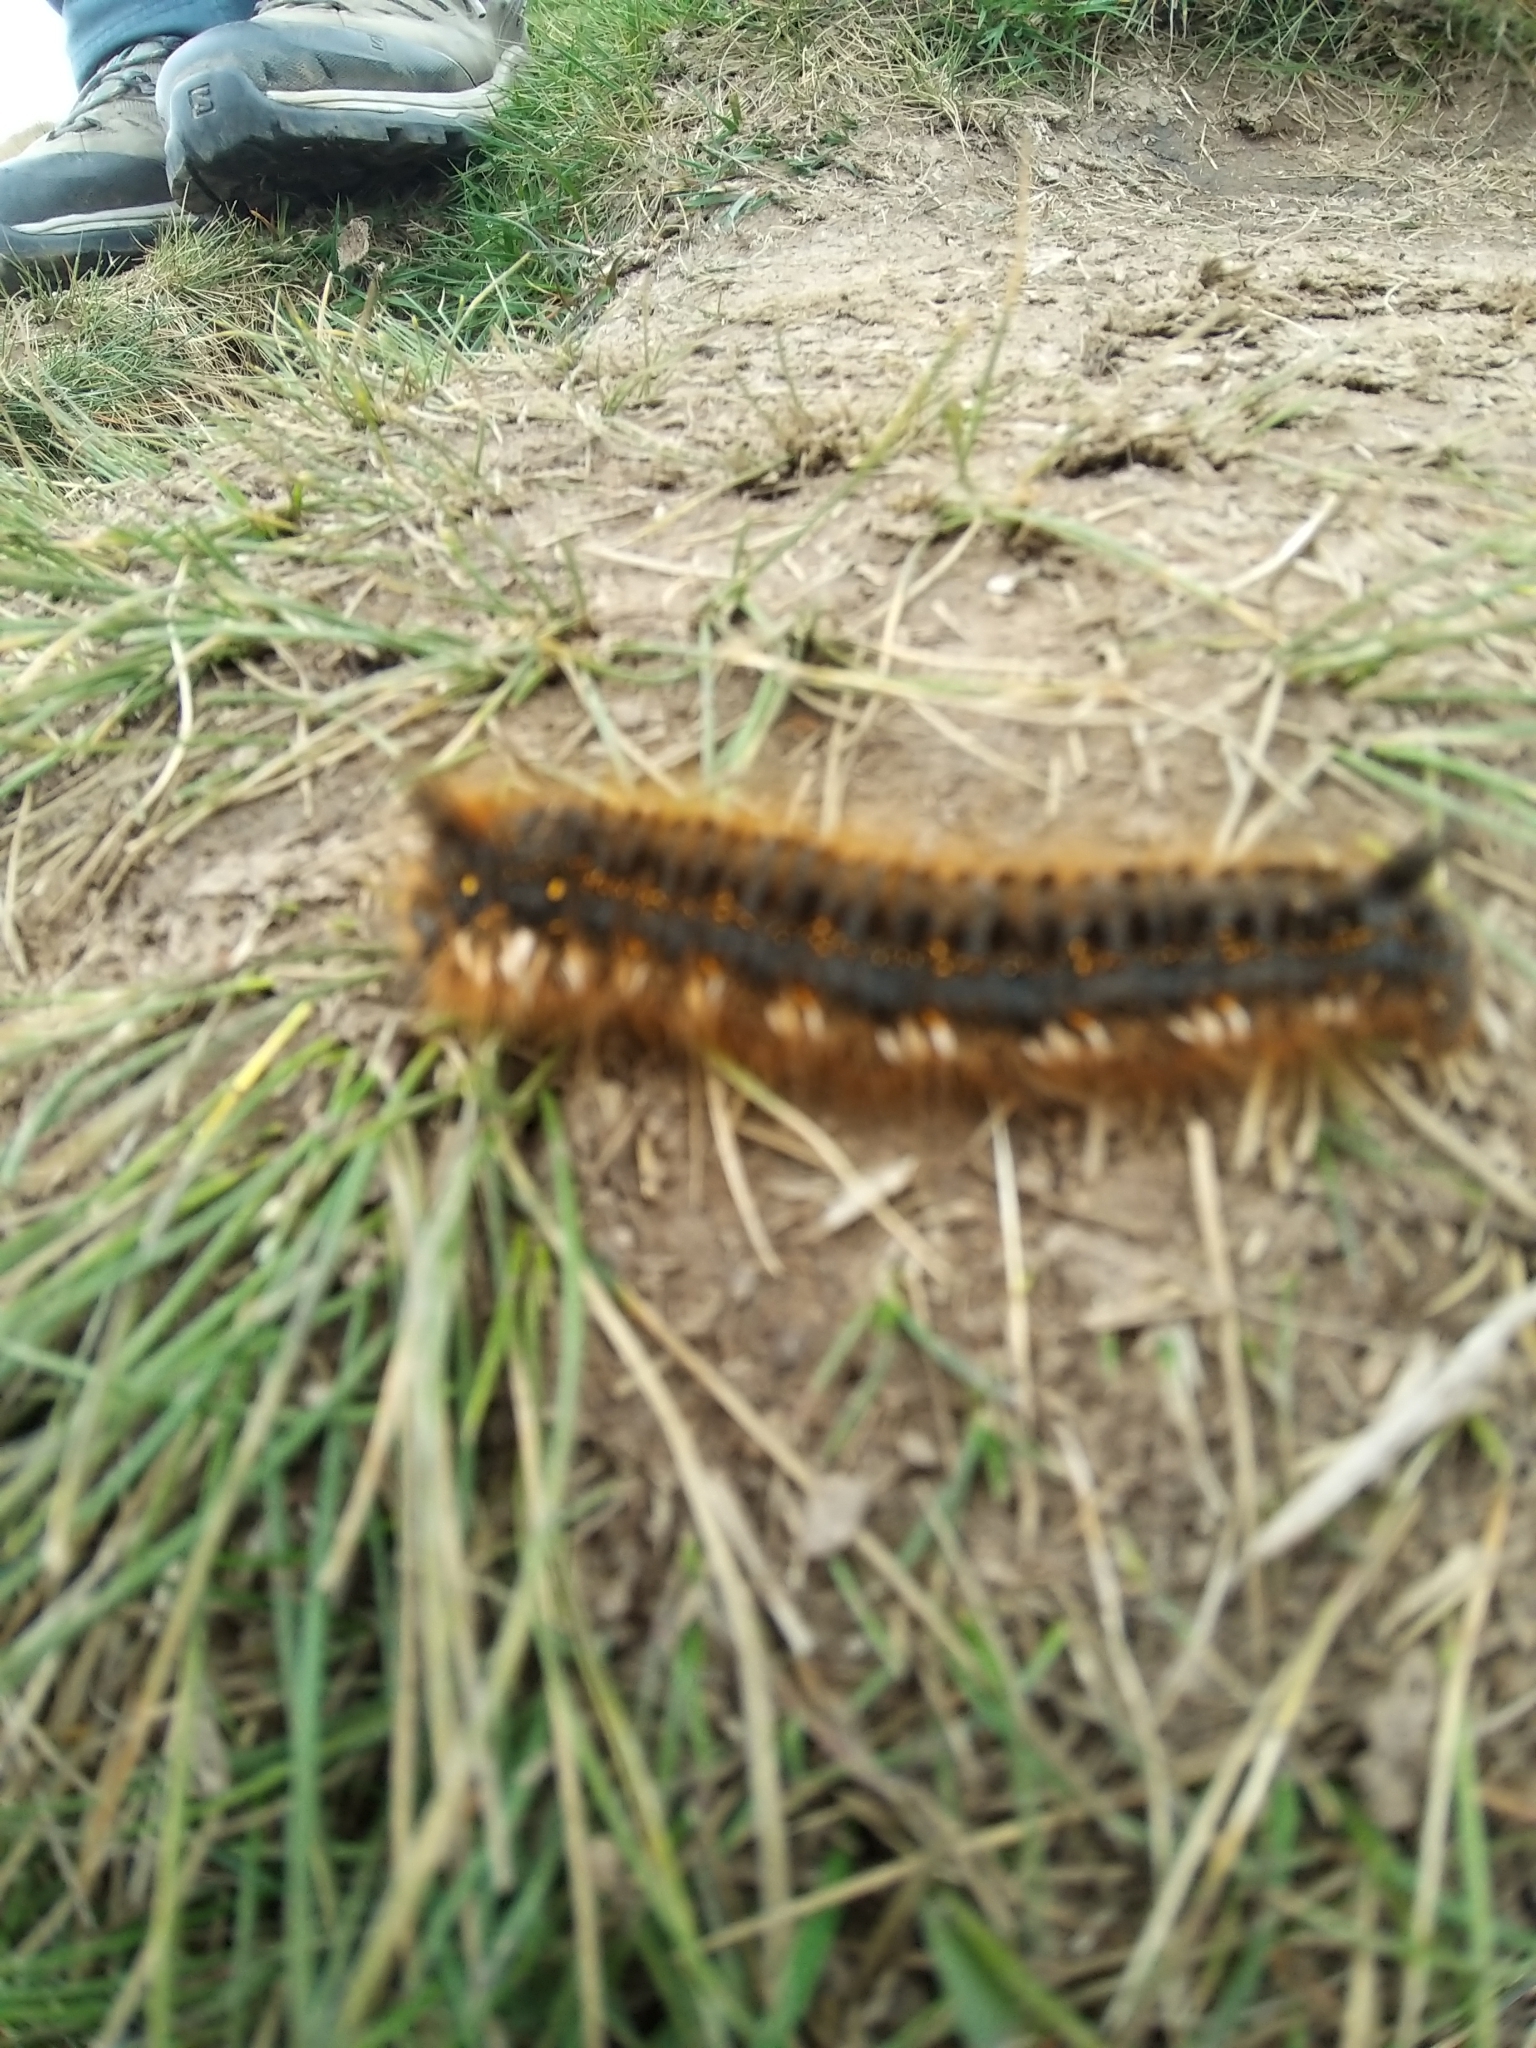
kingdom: Animalia
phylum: Arthropoda
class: Insecta
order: Lepidoptera
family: Lasiocampidae
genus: Euthrix
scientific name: Euthrix potatoria
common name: Drinker
